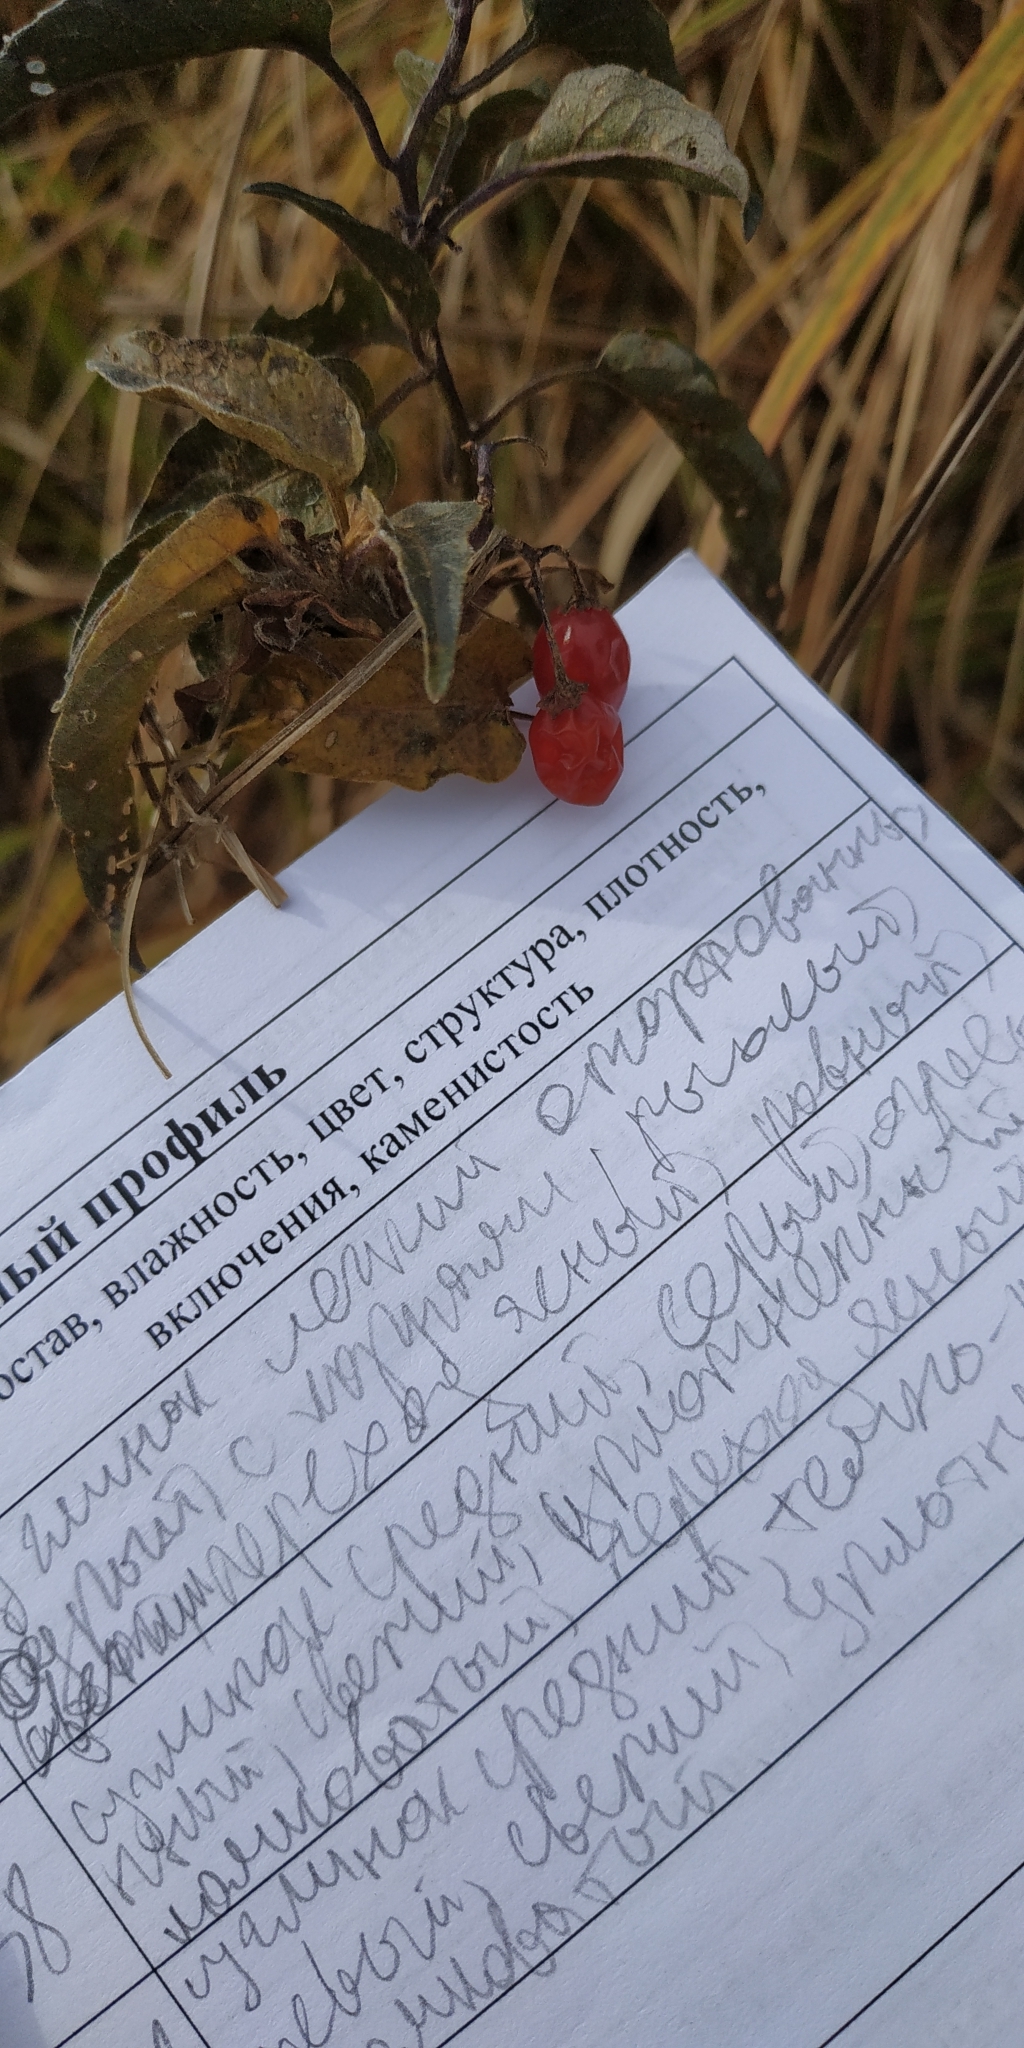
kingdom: Plantae
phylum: Tracheophyta
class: Magnoliopsida
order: Solanales
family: Solanaceae
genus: Solanum
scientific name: Solanum dulcamara
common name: Climbing nightshade
